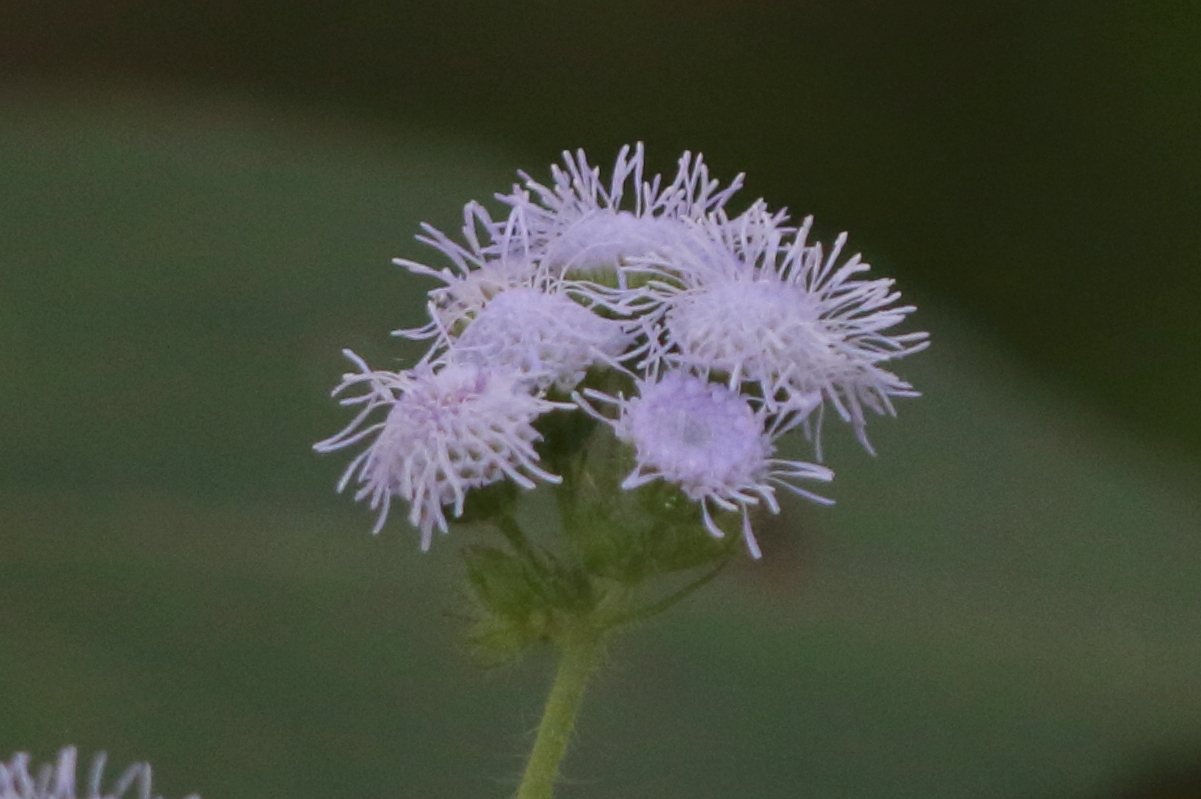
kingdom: Plantae
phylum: Tracheophyta
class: Magnoliopsida
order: Asterales
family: Asteraceae
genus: Ageratum
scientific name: Ageratum houstonianum
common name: Bluemink
